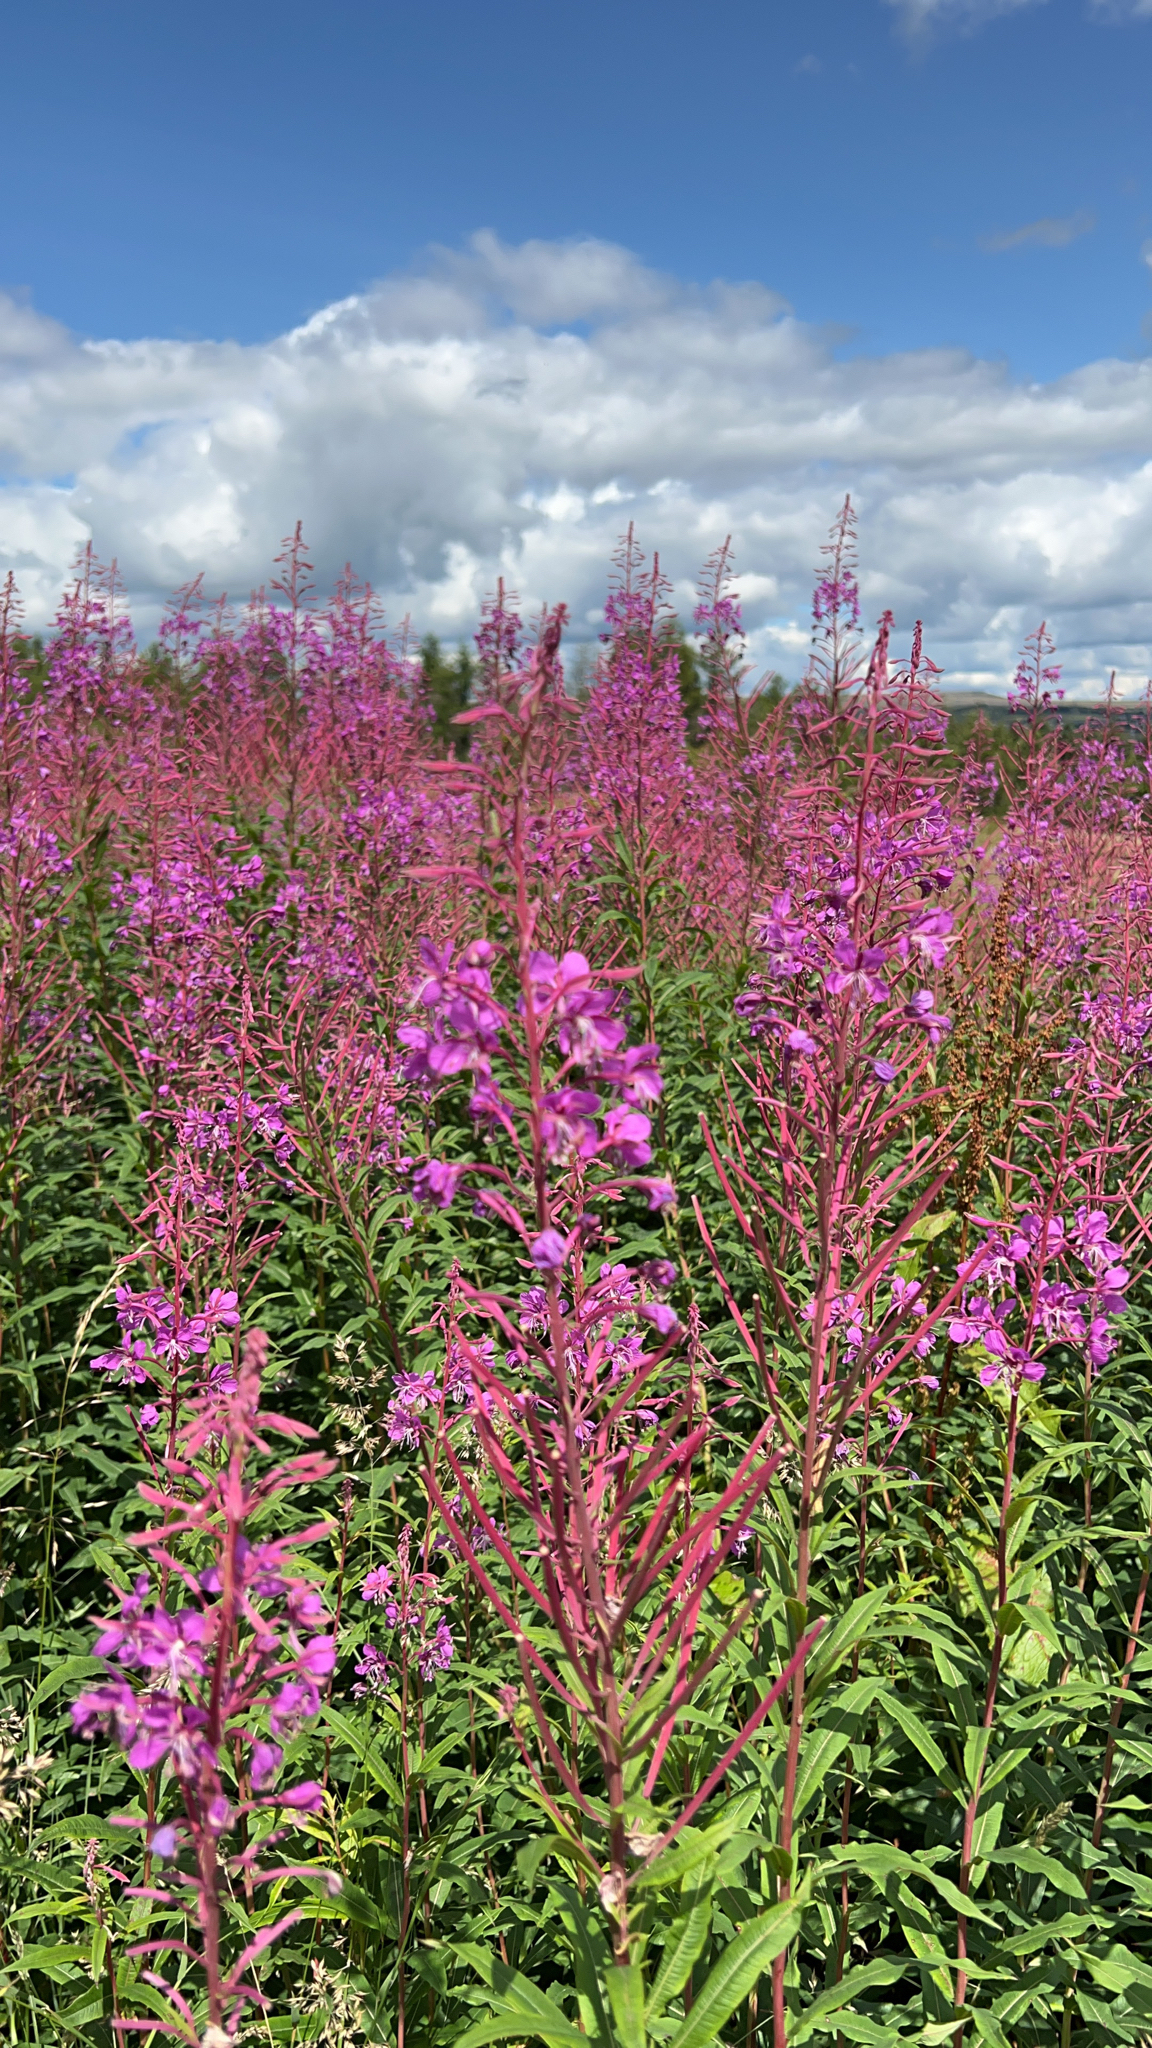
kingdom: Plantae
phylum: Tracheophyta
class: Magnoliopsida
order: Myrtales
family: Onagraceae
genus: Chamaenerion
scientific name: Chamaenerion angustifolium
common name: Fireweed
